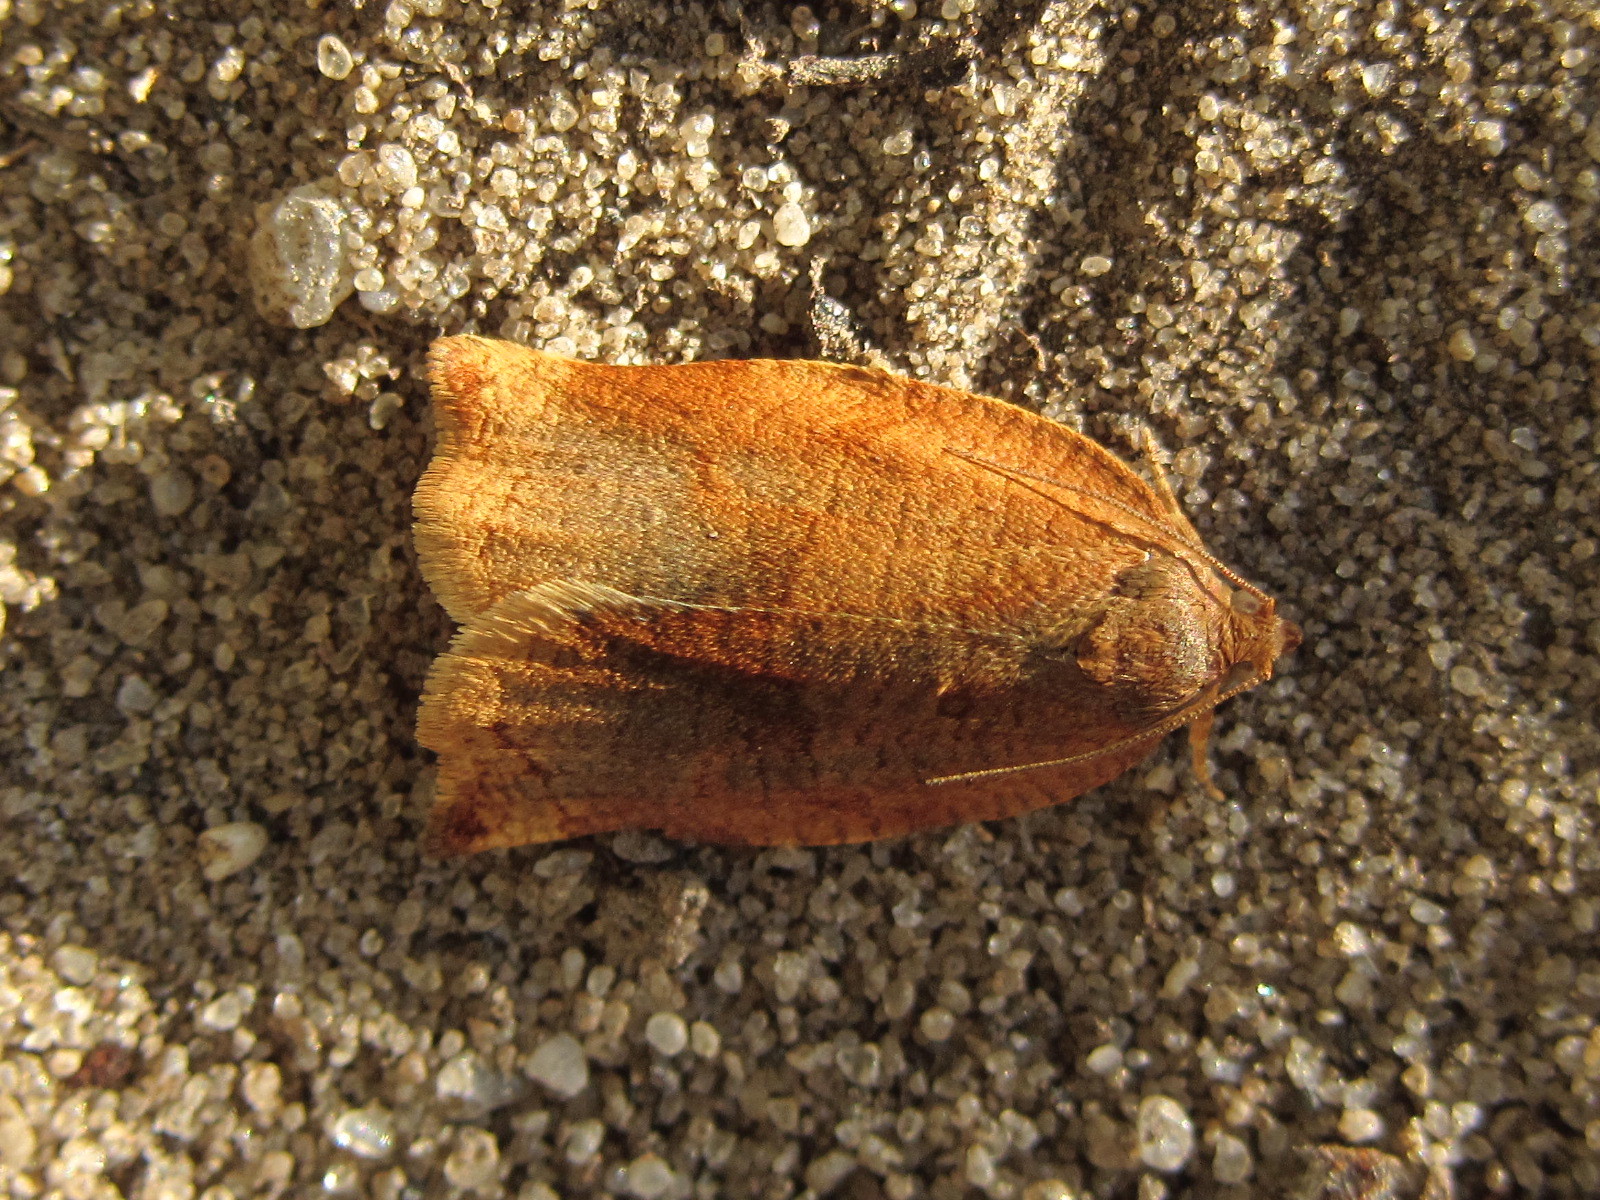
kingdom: Animalia
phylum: Arthropoda
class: Insecta
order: Lepidoptera
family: Tortricidae
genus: Archips
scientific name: Archips rosana
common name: Rose tortrix
